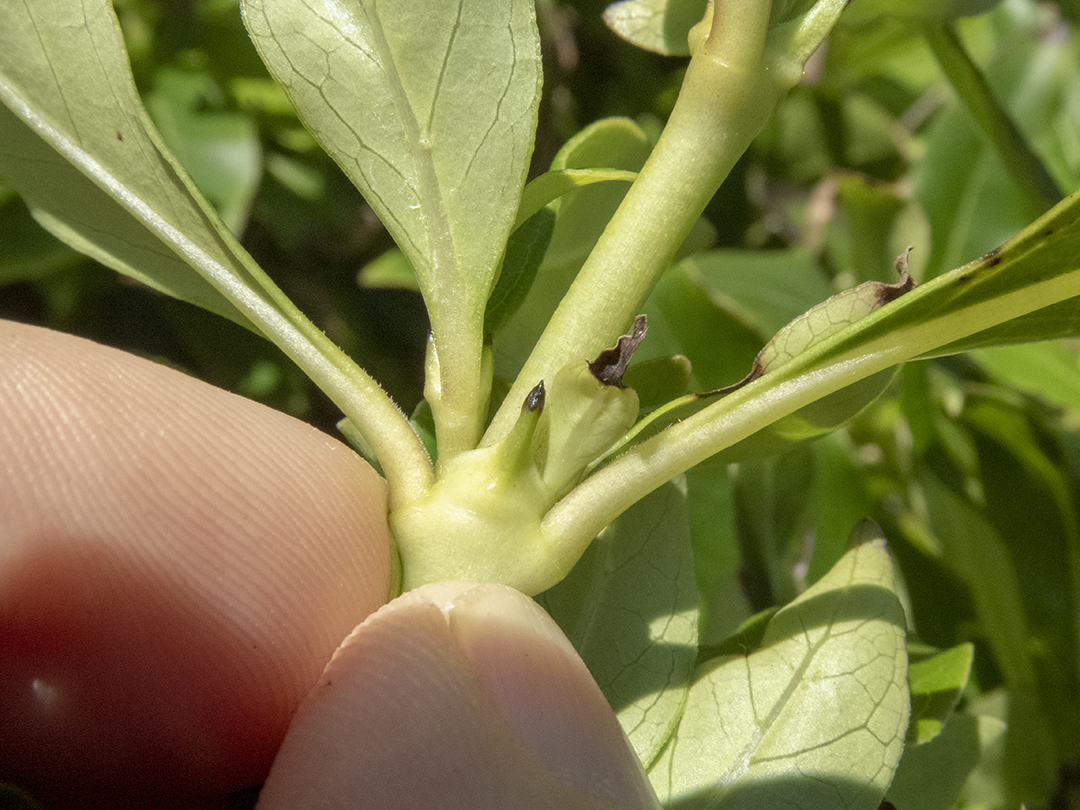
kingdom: Plantae
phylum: Tracheophyta
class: Magnoliopsida
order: Gentianales
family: Rubiaceae
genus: Coprosma
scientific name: Coprosma robusta
